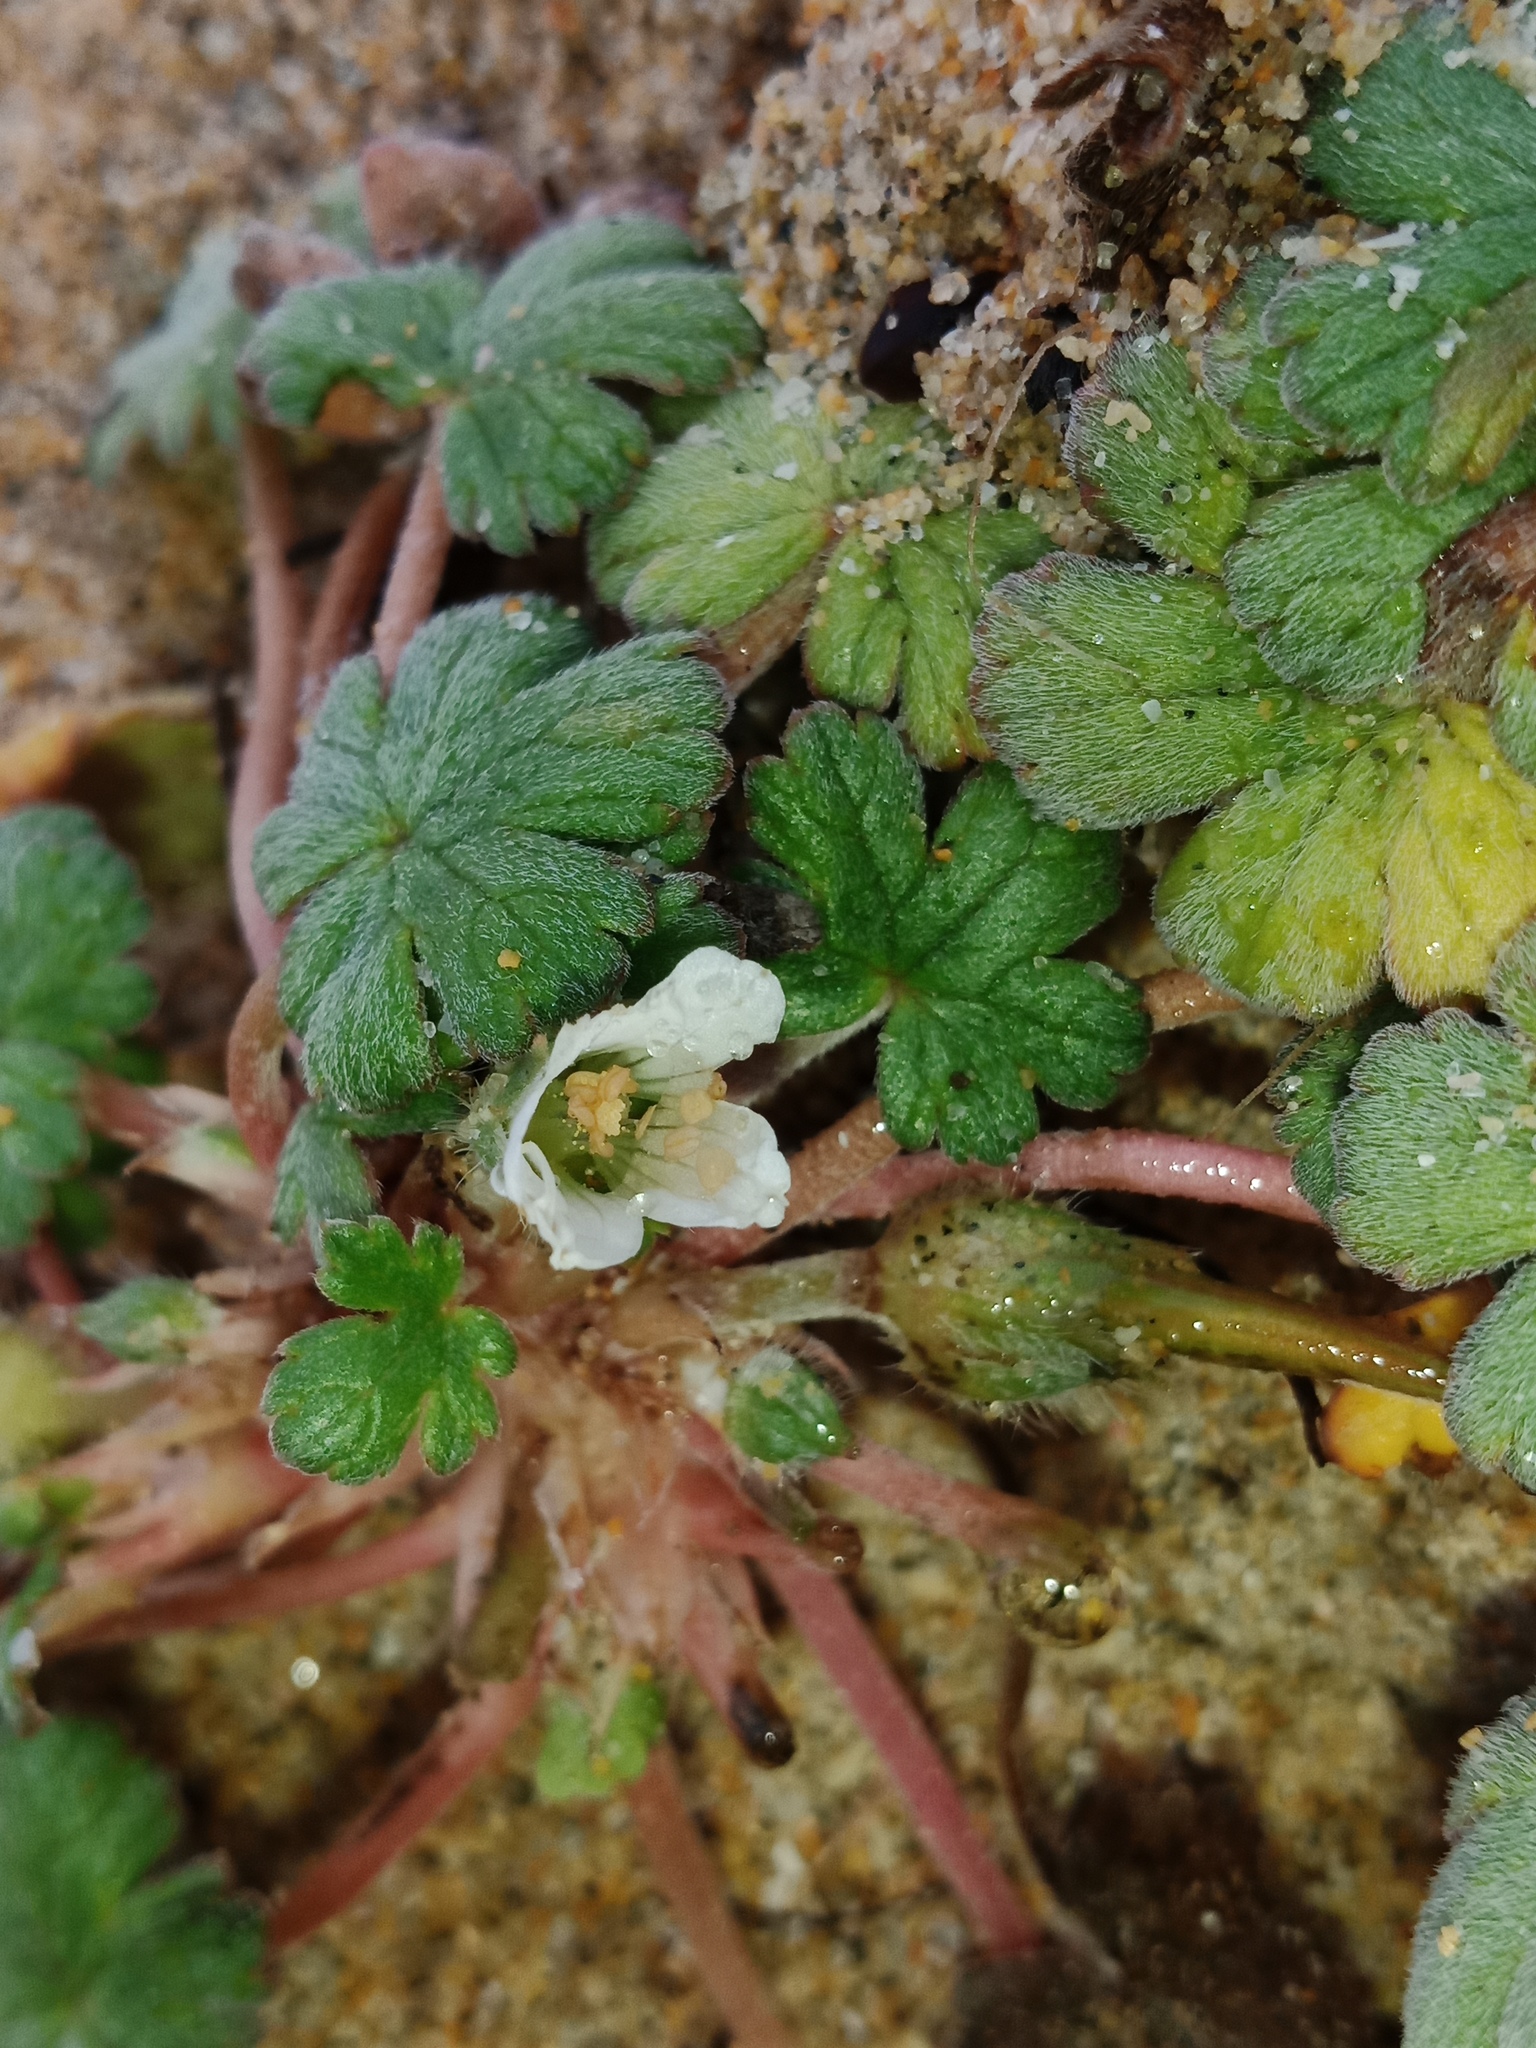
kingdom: Plantae
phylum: Tracheophyta
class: Magnoliopsida
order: Geraniales
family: Geraniaceae
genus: Geranium
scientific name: Geranium brevicaule
